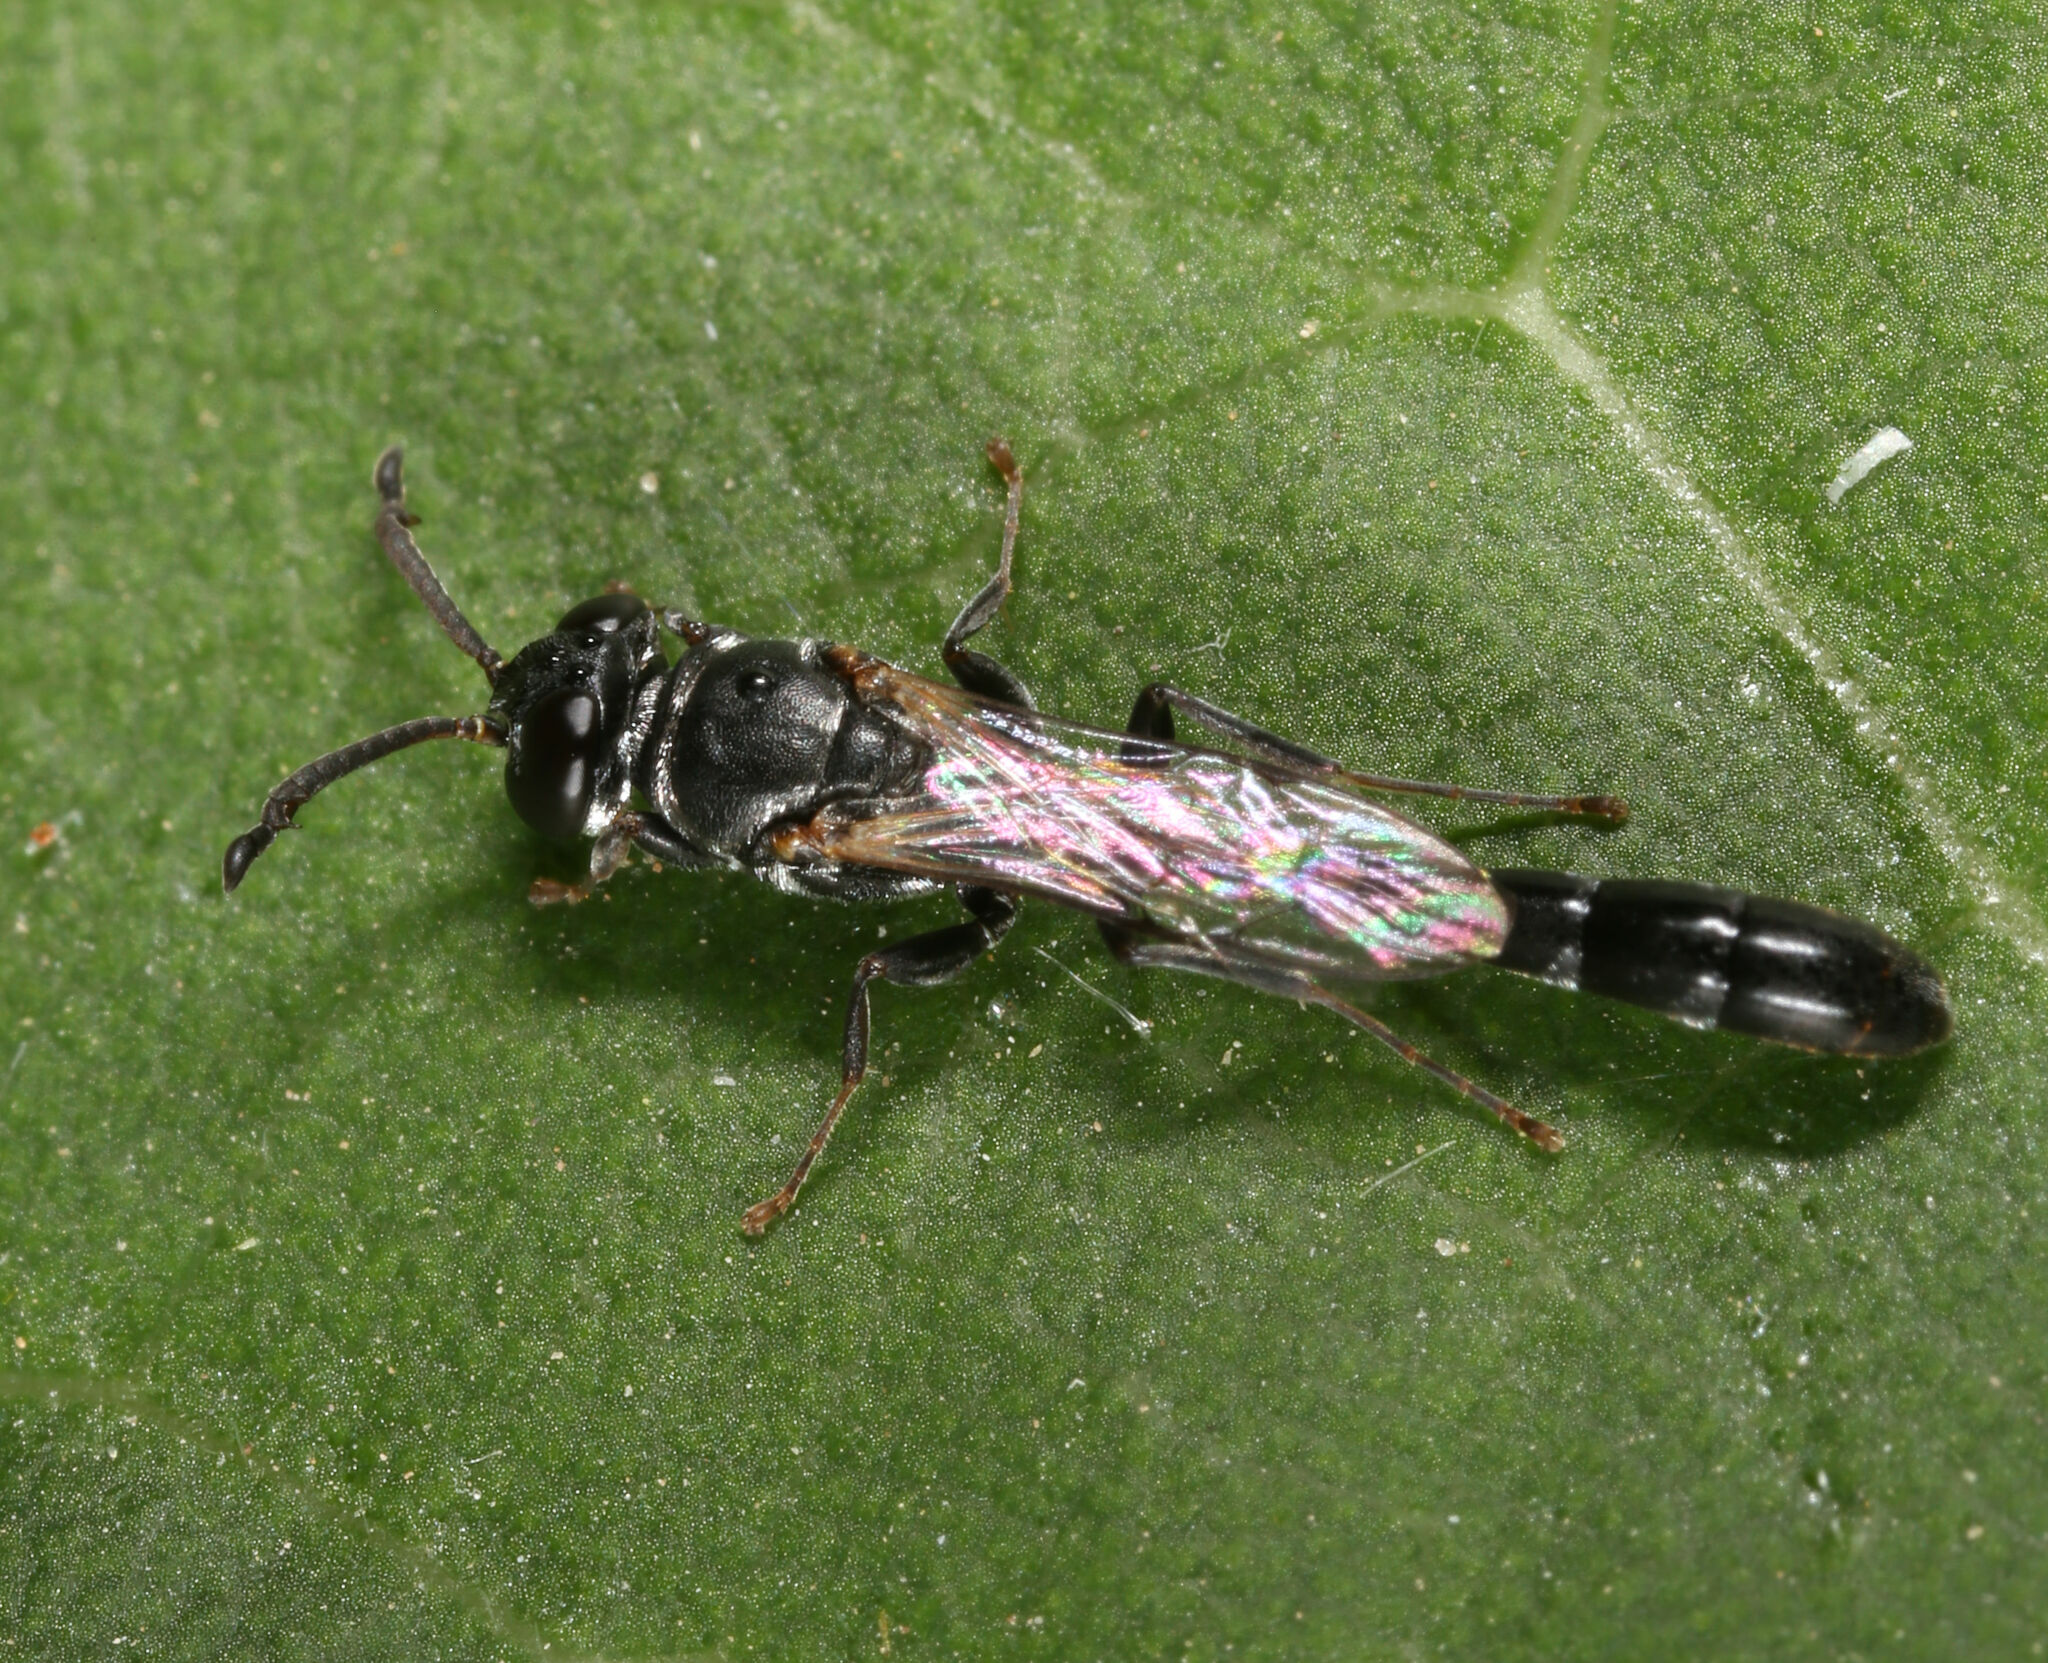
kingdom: Animalia
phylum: Arthropoda
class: Insecta
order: Hymenoptera
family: Crabronidae
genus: Trypoxylon
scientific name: Trypoxylon punctivertex
